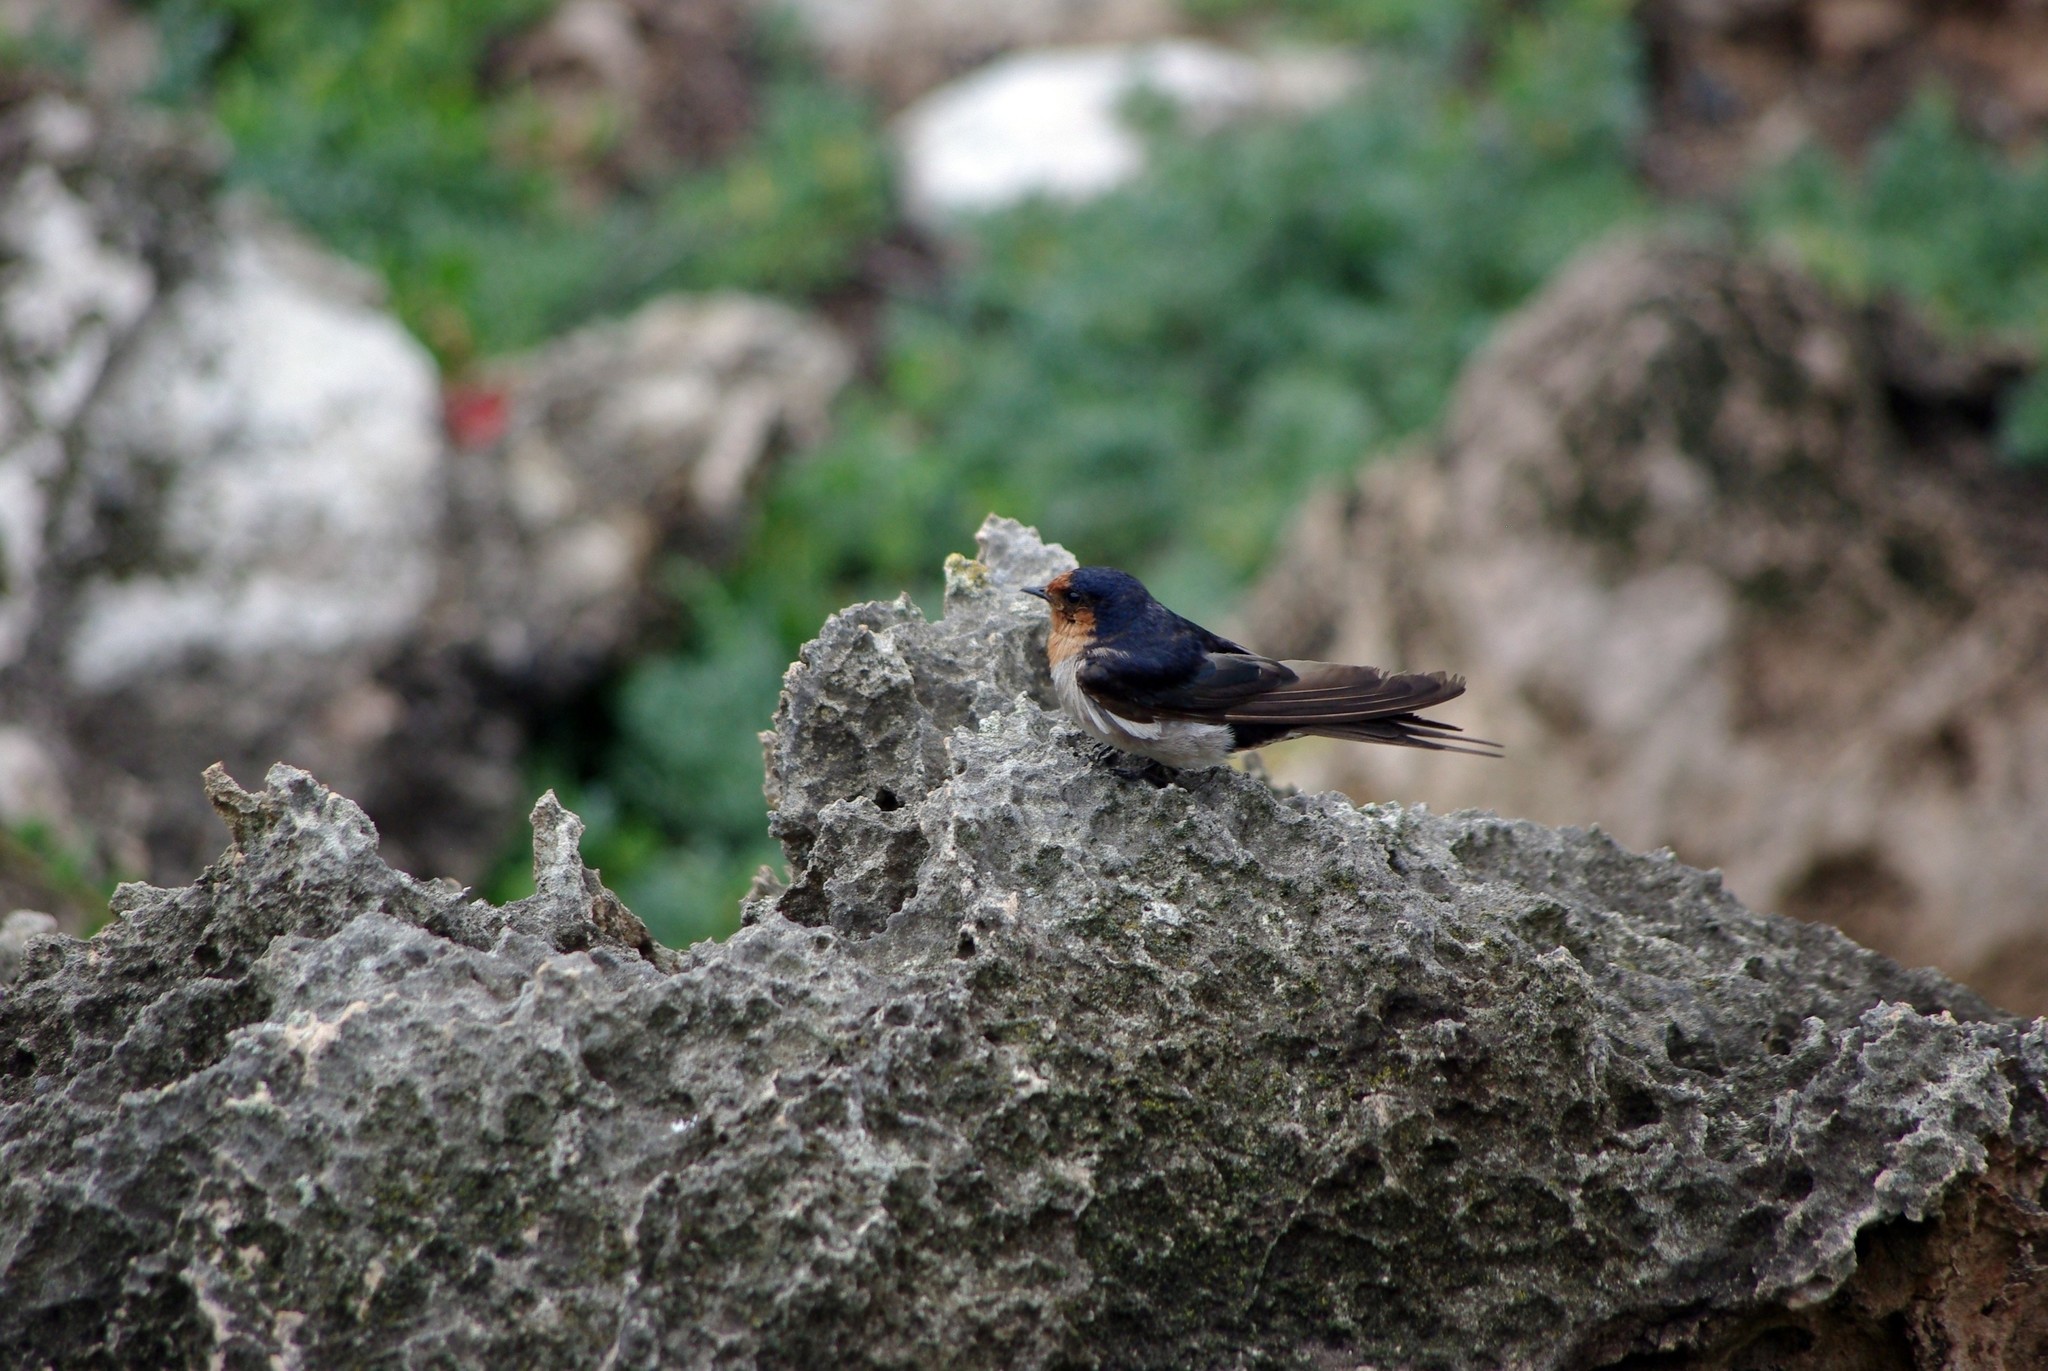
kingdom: Animalia
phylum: Chordata
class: Aves
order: Passeriformes
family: Hirundinidae
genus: Hirundo
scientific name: Hirundo neoxena
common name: Welcome swallow
